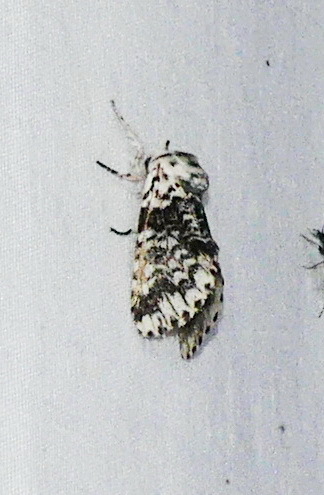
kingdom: Animalia
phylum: Arthropoda
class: Insecta
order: Lepidoptera
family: Notodontidae
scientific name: Notodontidae
